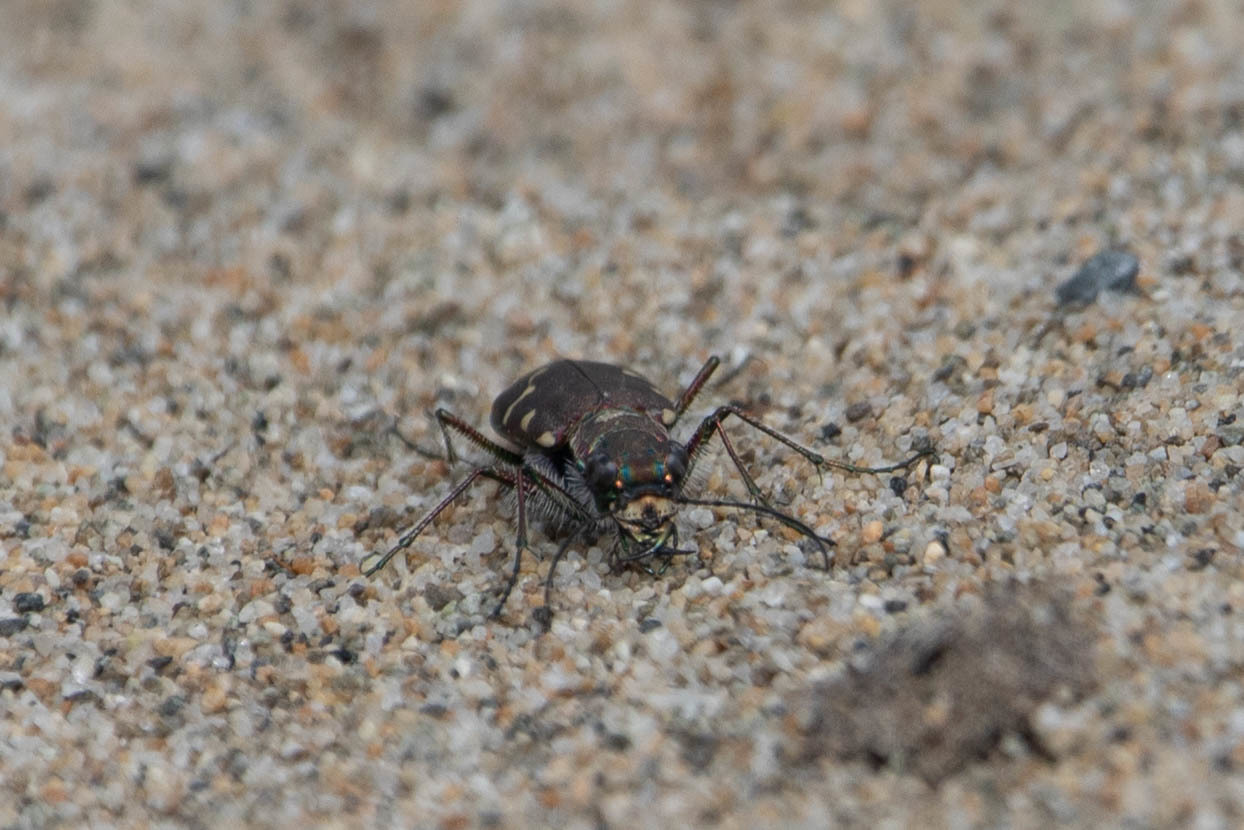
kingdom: Animalia
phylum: Arthropoda
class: Insecta
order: Coleoptera
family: Carabidae
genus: Cicindela
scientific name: Cicindela oregona
